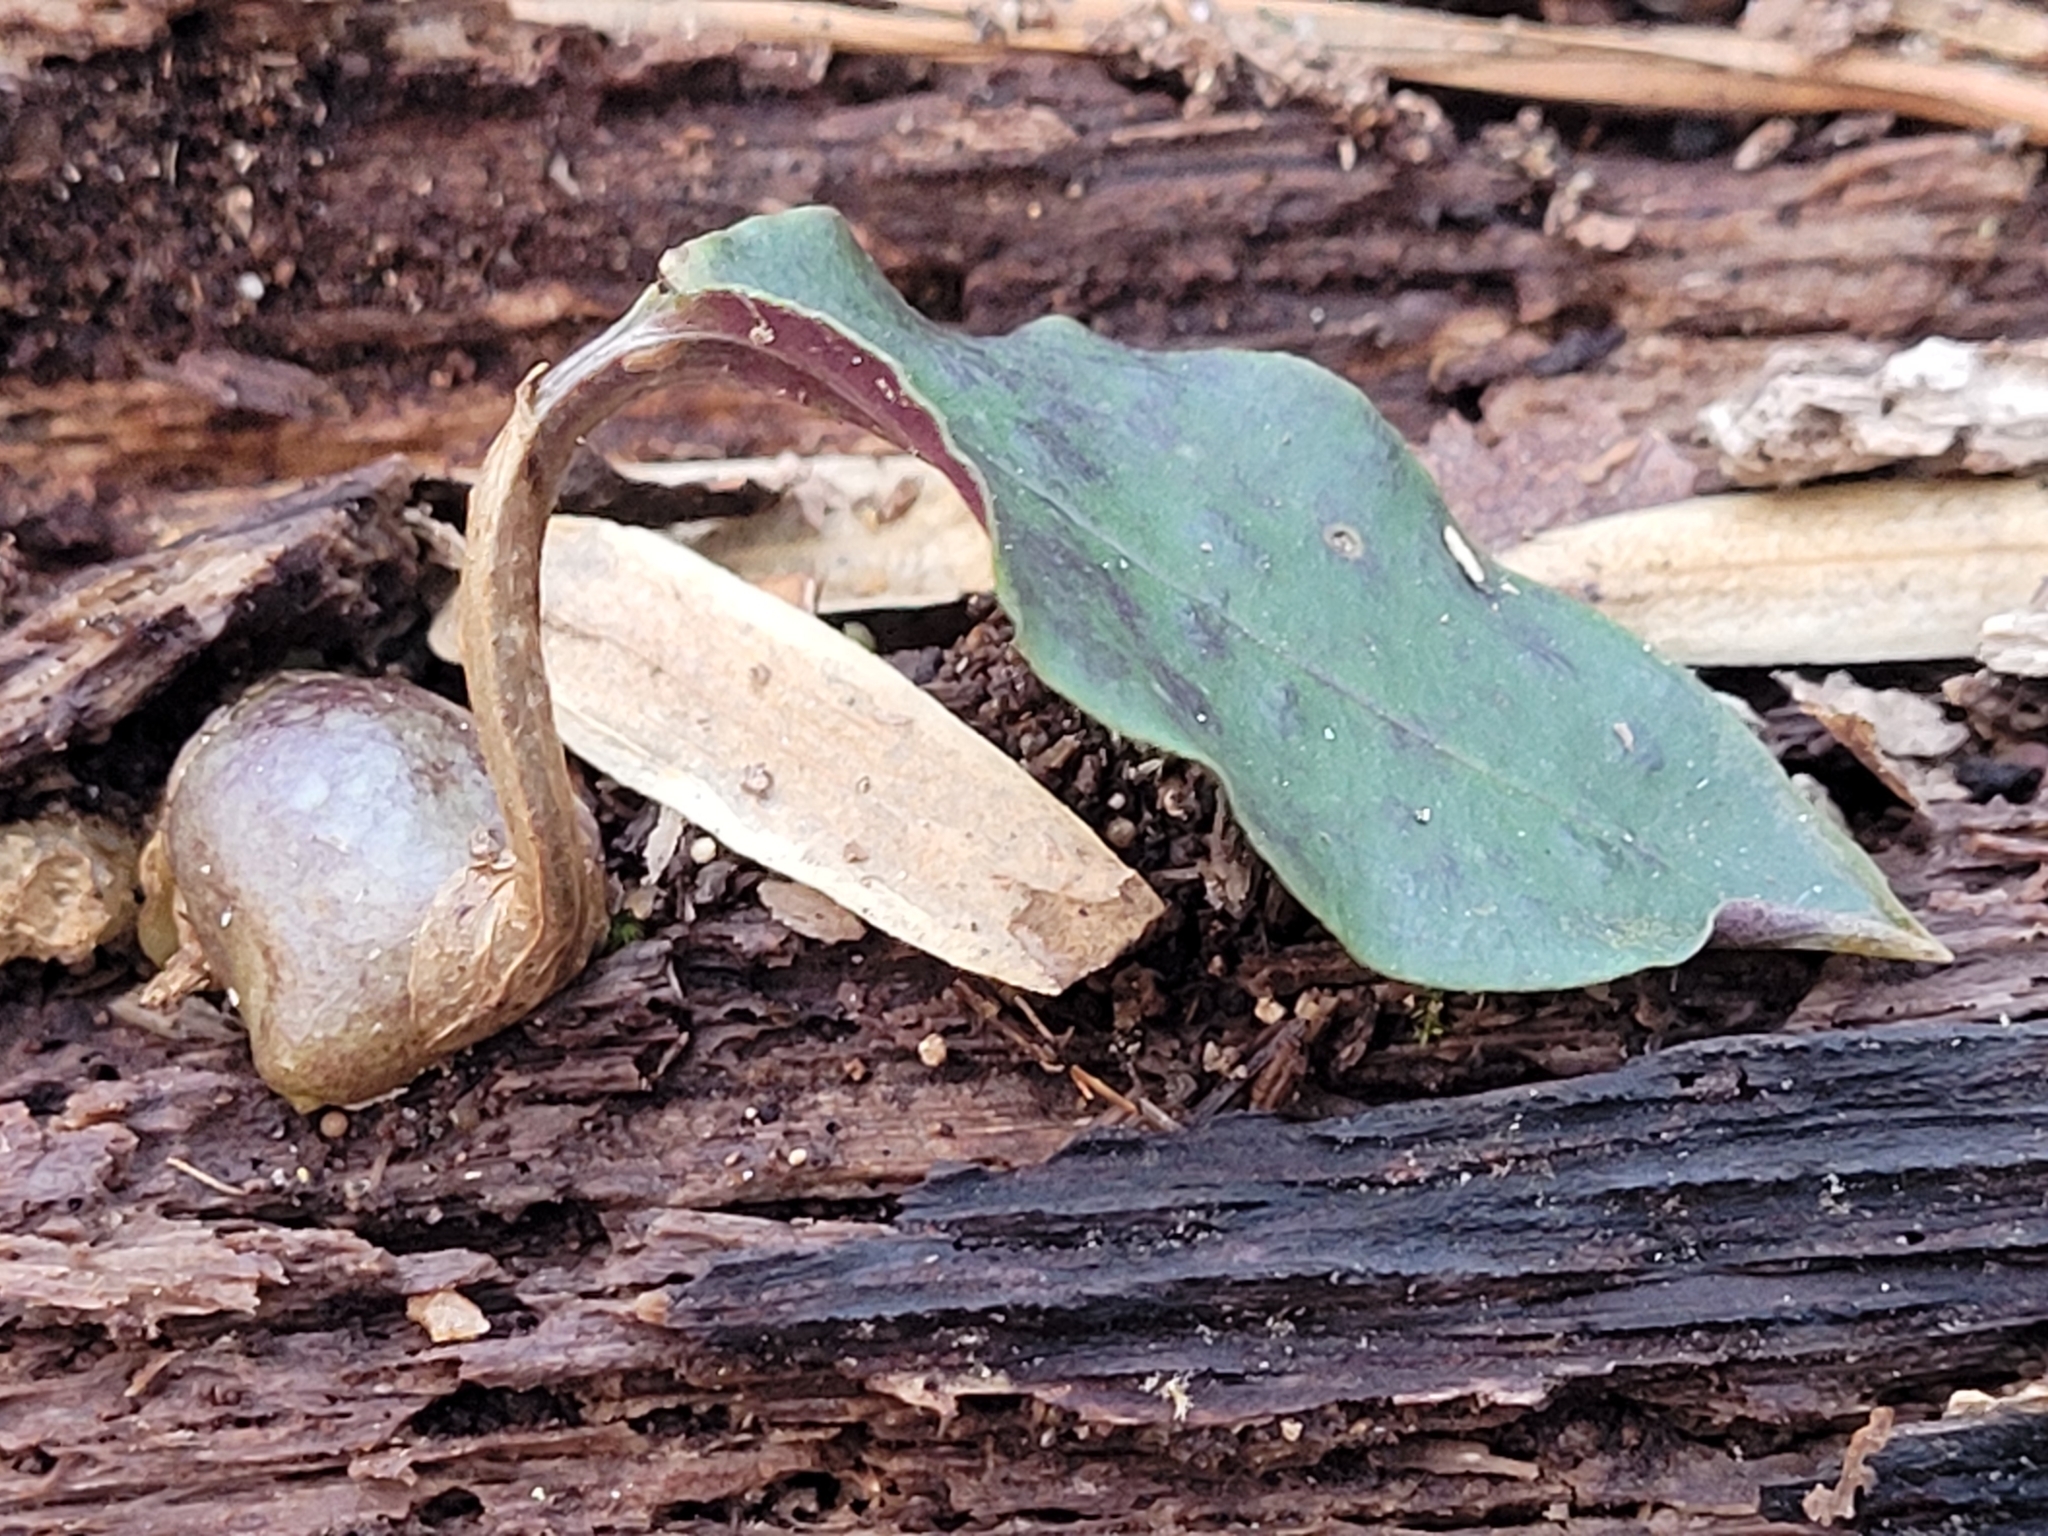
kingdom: Plantae
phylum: Tracheophyta
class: Liliopsida
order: Asparagales
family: Orchidaceae
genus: Tipularia
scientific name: Tipularia discolor
